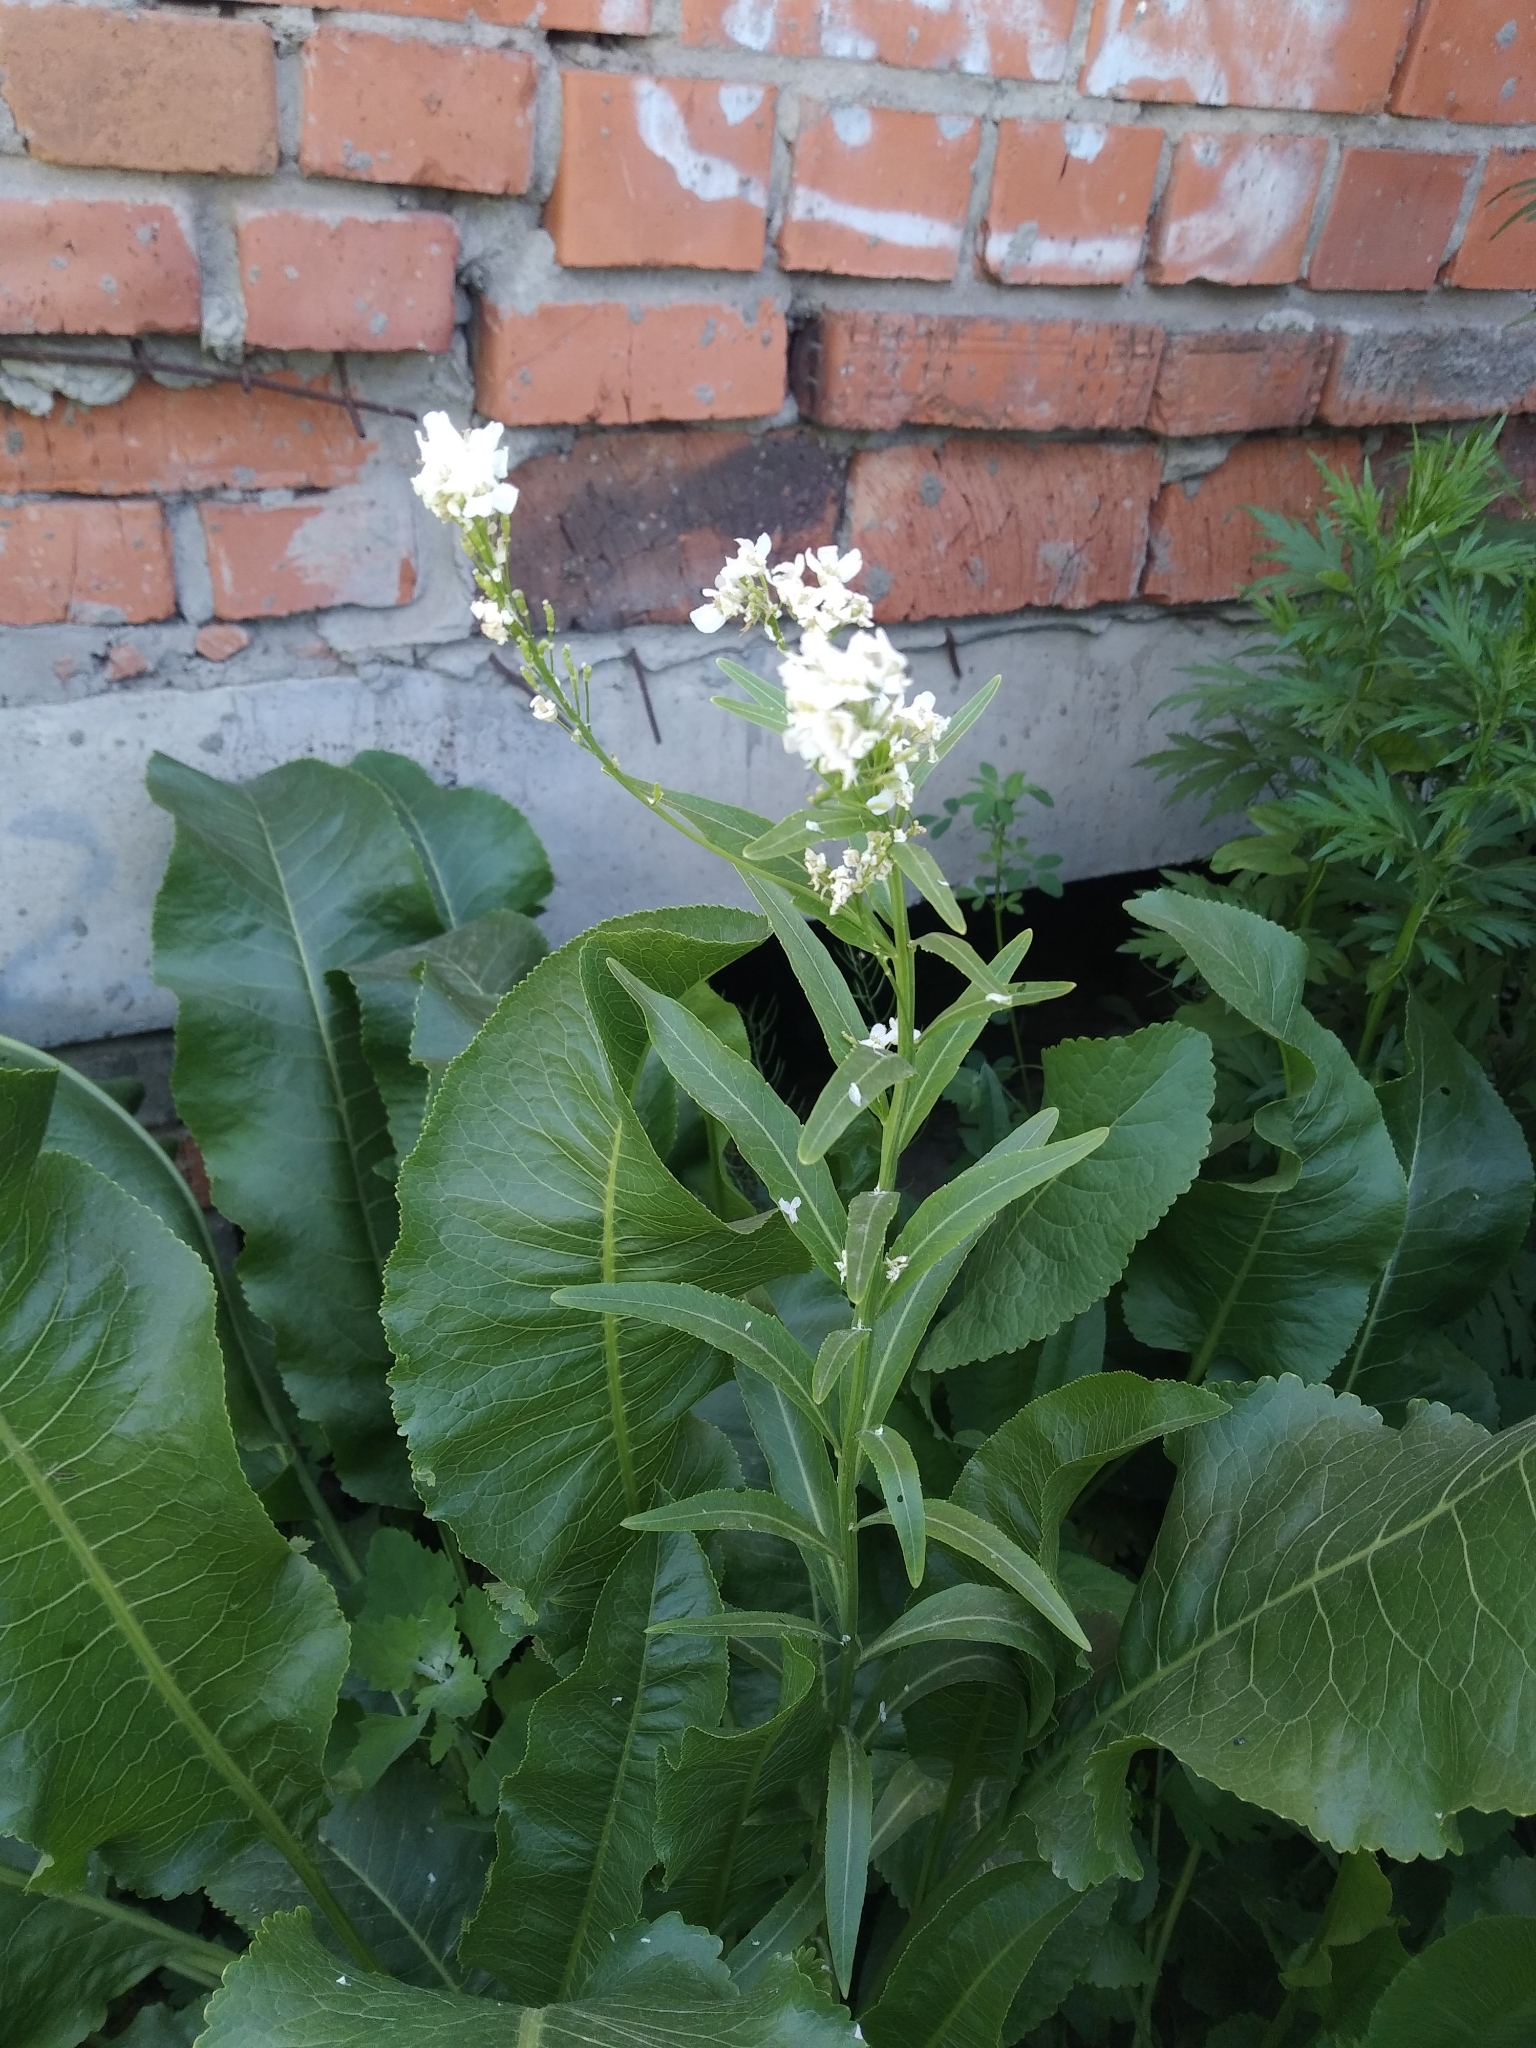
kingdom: Plantae
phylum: Tracheophyta
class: Magnoliopsida
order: Brassicales
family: Brassicaceae
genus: Armoracia
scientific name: Armoracia rusticana
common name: Horseradish
